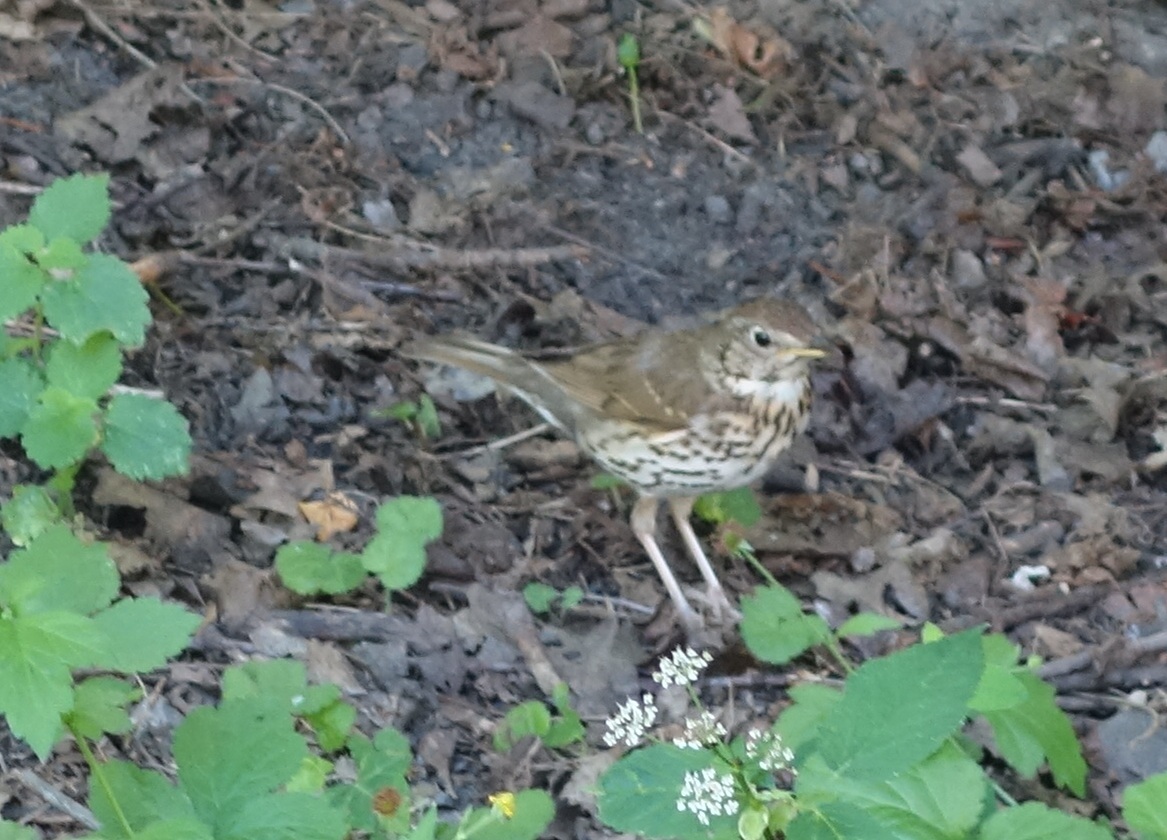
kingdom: Animalia
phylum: Chordata
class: Aves
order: Passeriformes
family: Turdidae
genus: Turdus
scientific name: Turdus philomelos
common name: Song thrush
